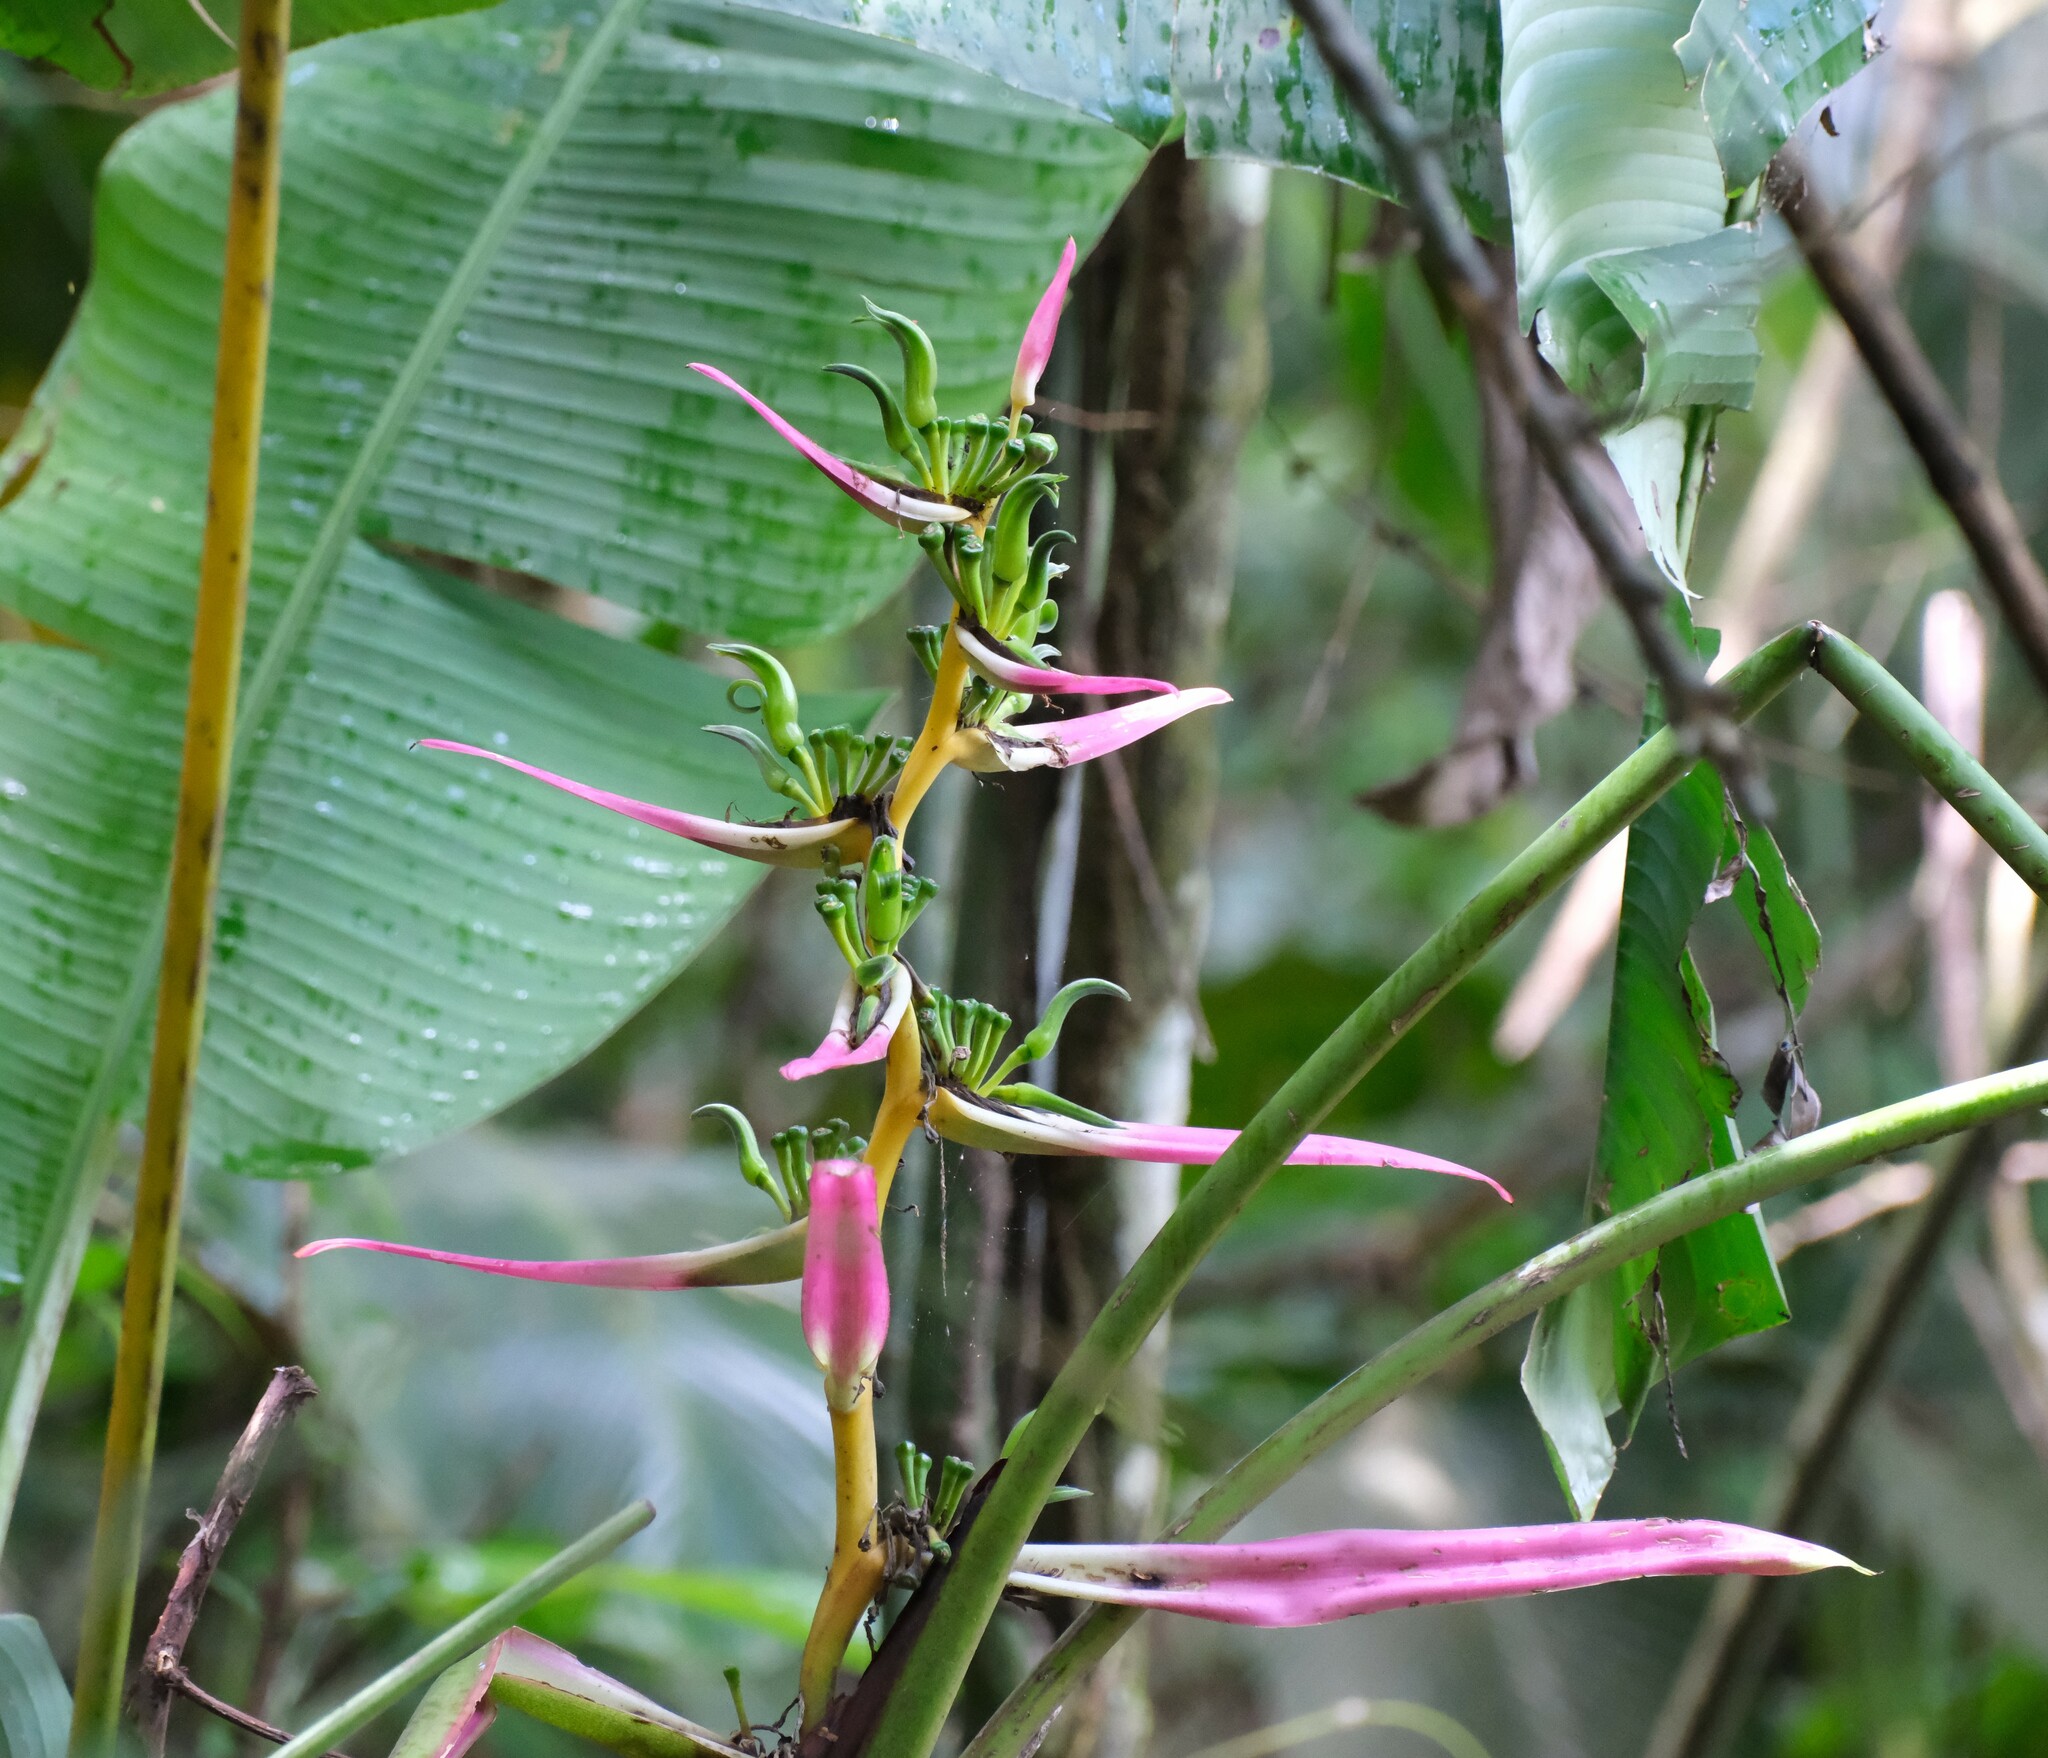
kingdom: Plantae
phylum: Tracheophyta
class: Liliopsida
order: Zingiberales
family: Heliconiaceae
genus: Heliconia
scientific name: Heliconia aemygdiana
